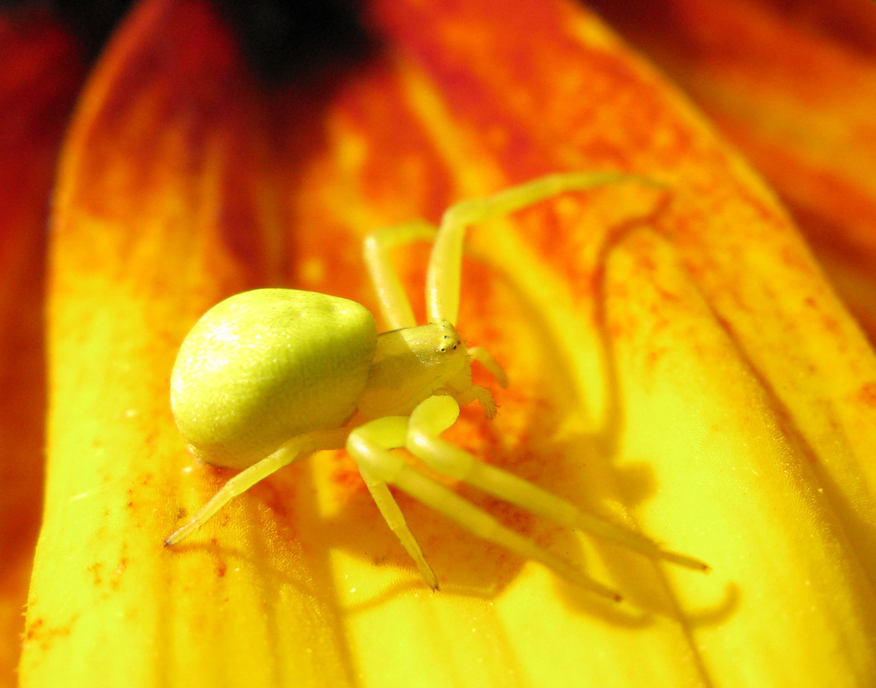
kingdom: Animalia
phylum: Arthropoda
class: Arachnida
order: Araneae
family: Thomisidae
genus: Misumena
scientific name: Misumena vatia
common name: Goldenrod crab spider
